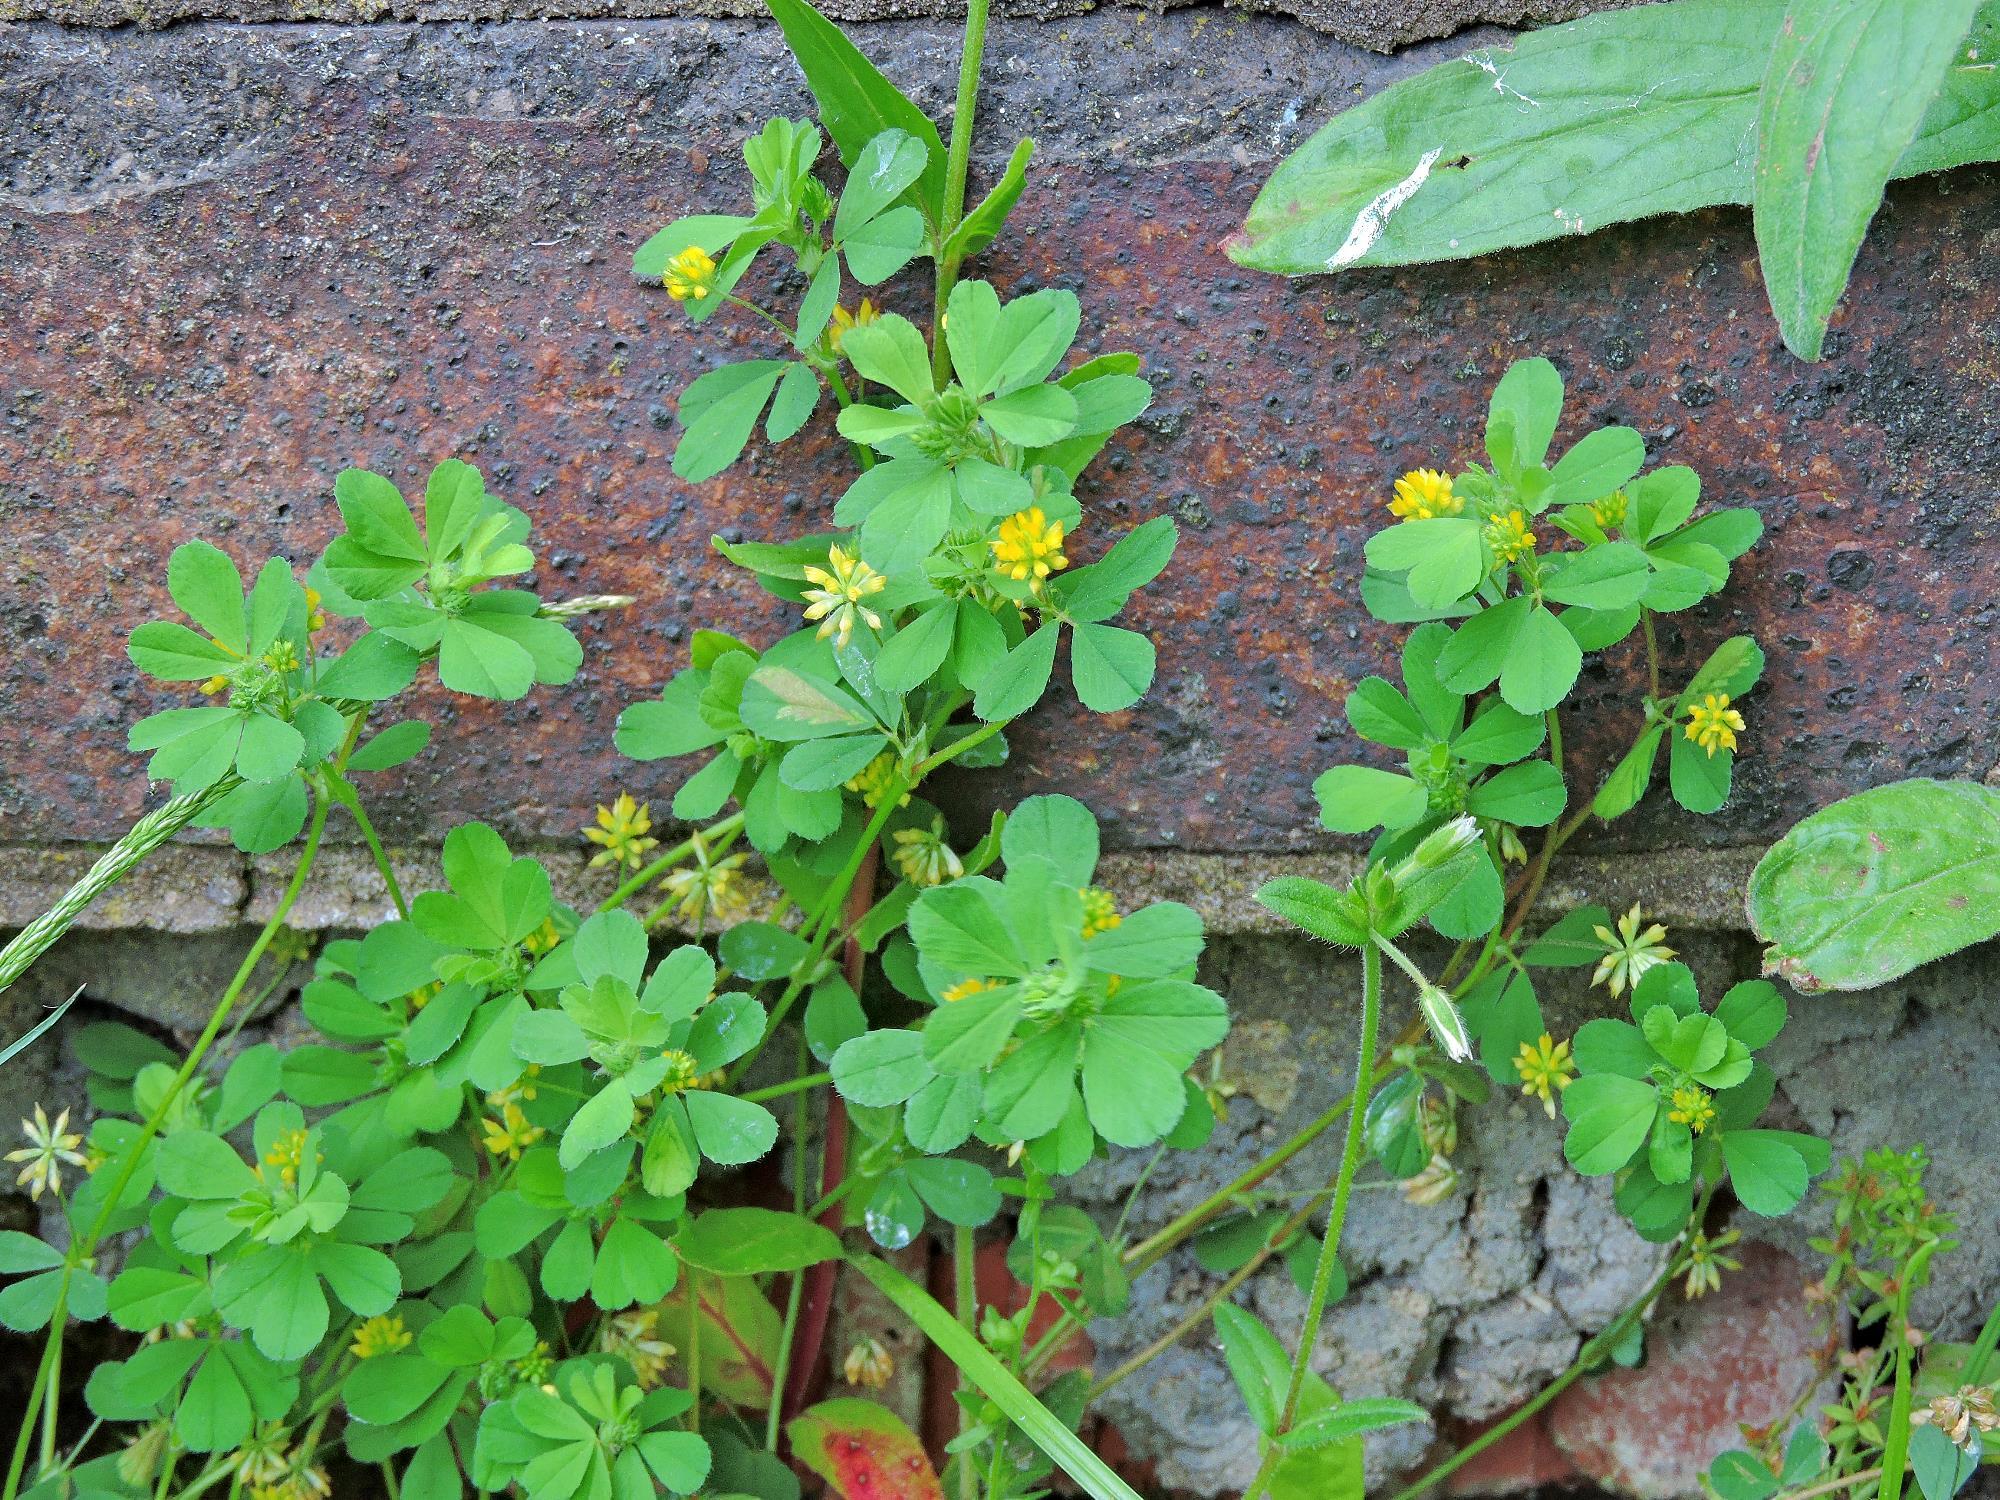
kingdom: Plantae
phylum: Tracheophyta
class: Magnoliopsida
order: Fabales
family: Fabaceae
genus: Medicago
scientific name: Medicago lupulina
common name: Black medick
